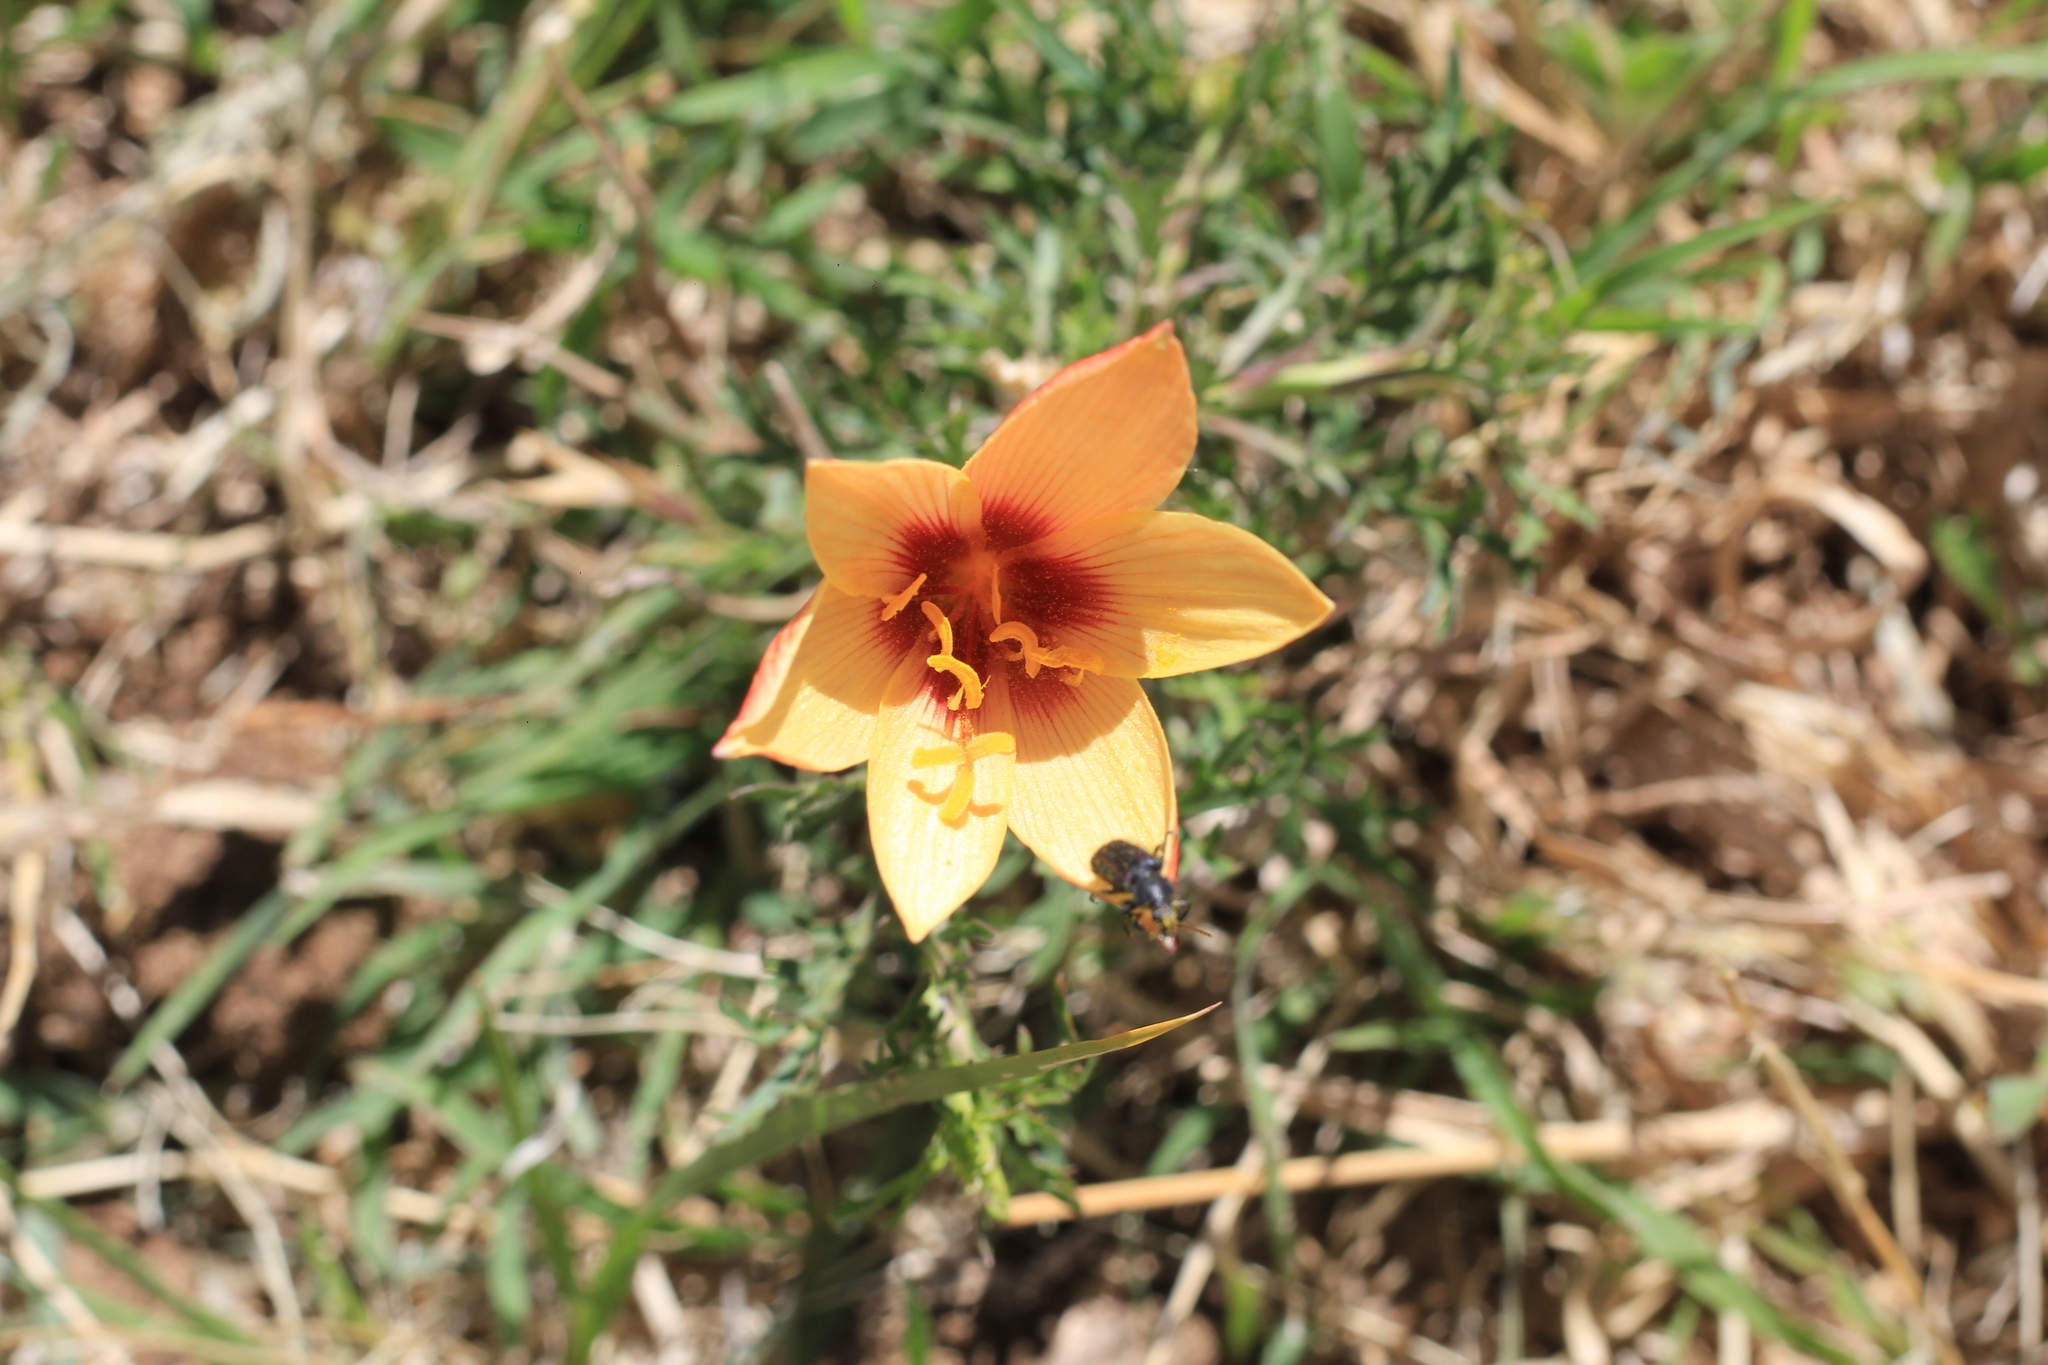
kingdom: Plantae
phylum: Tracheophyta
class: Liliopsida
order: Asparagales
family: Amaryllidaceae
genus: Zephyranthes
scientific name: Zephyranthes tubispatha
